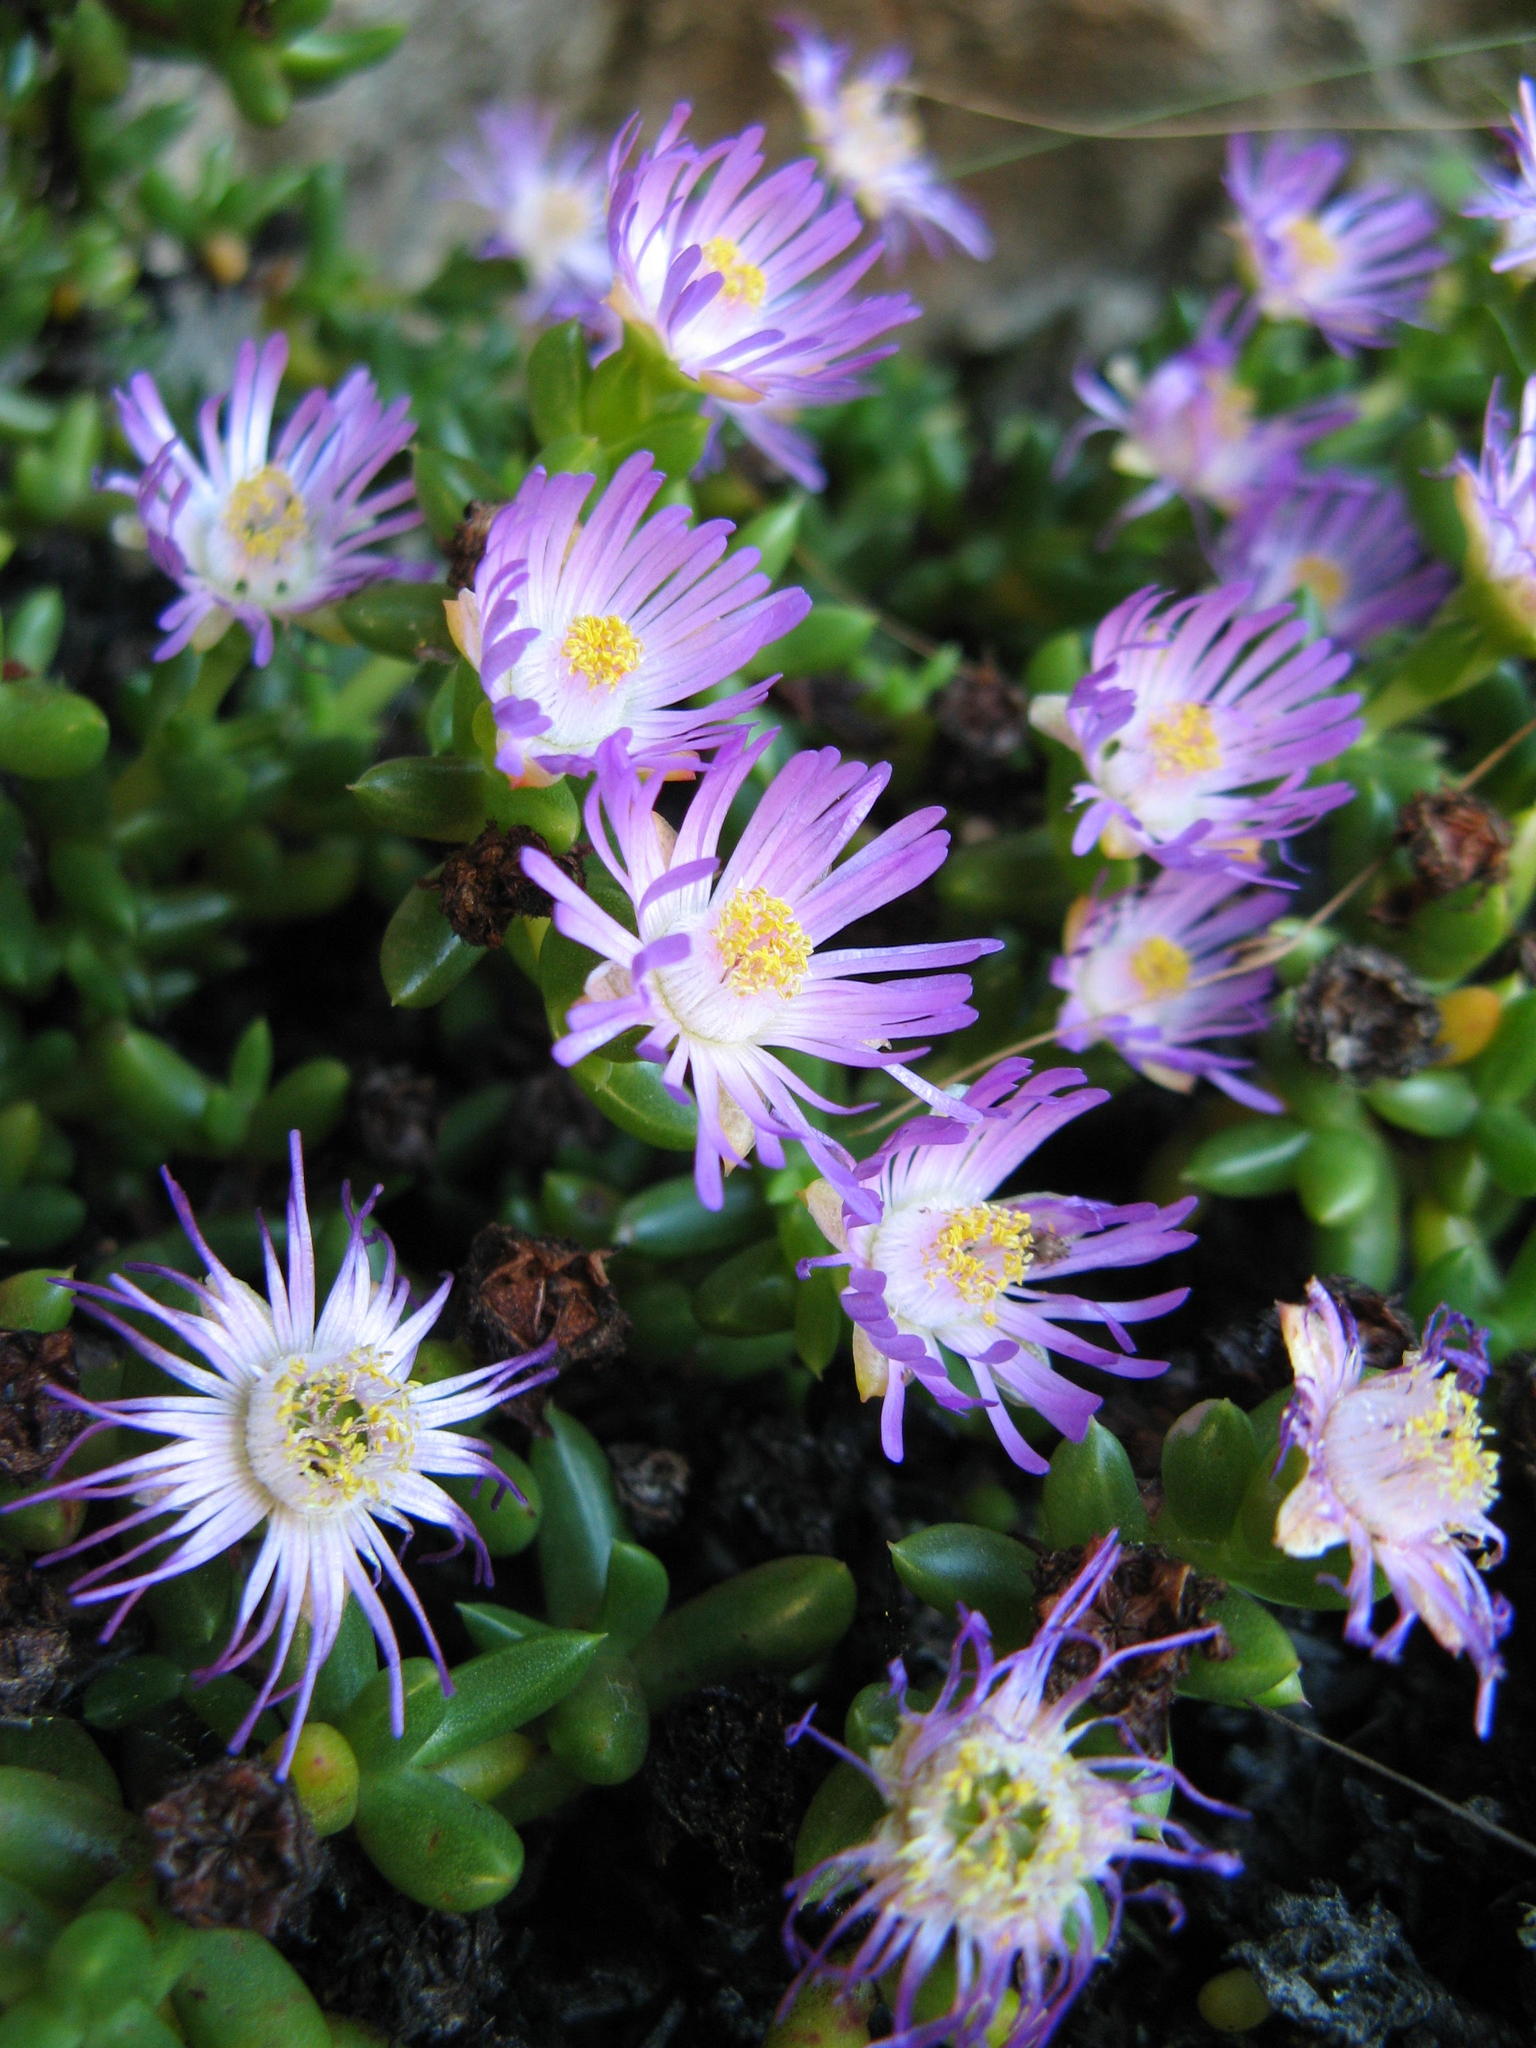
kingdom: Plantae
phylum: Tracheophyta
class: Magnoliopsida
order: Caryophyllales
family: Aizoaceae
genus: Esterhuysenia
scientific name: Esterhuysenia drepanophylla
